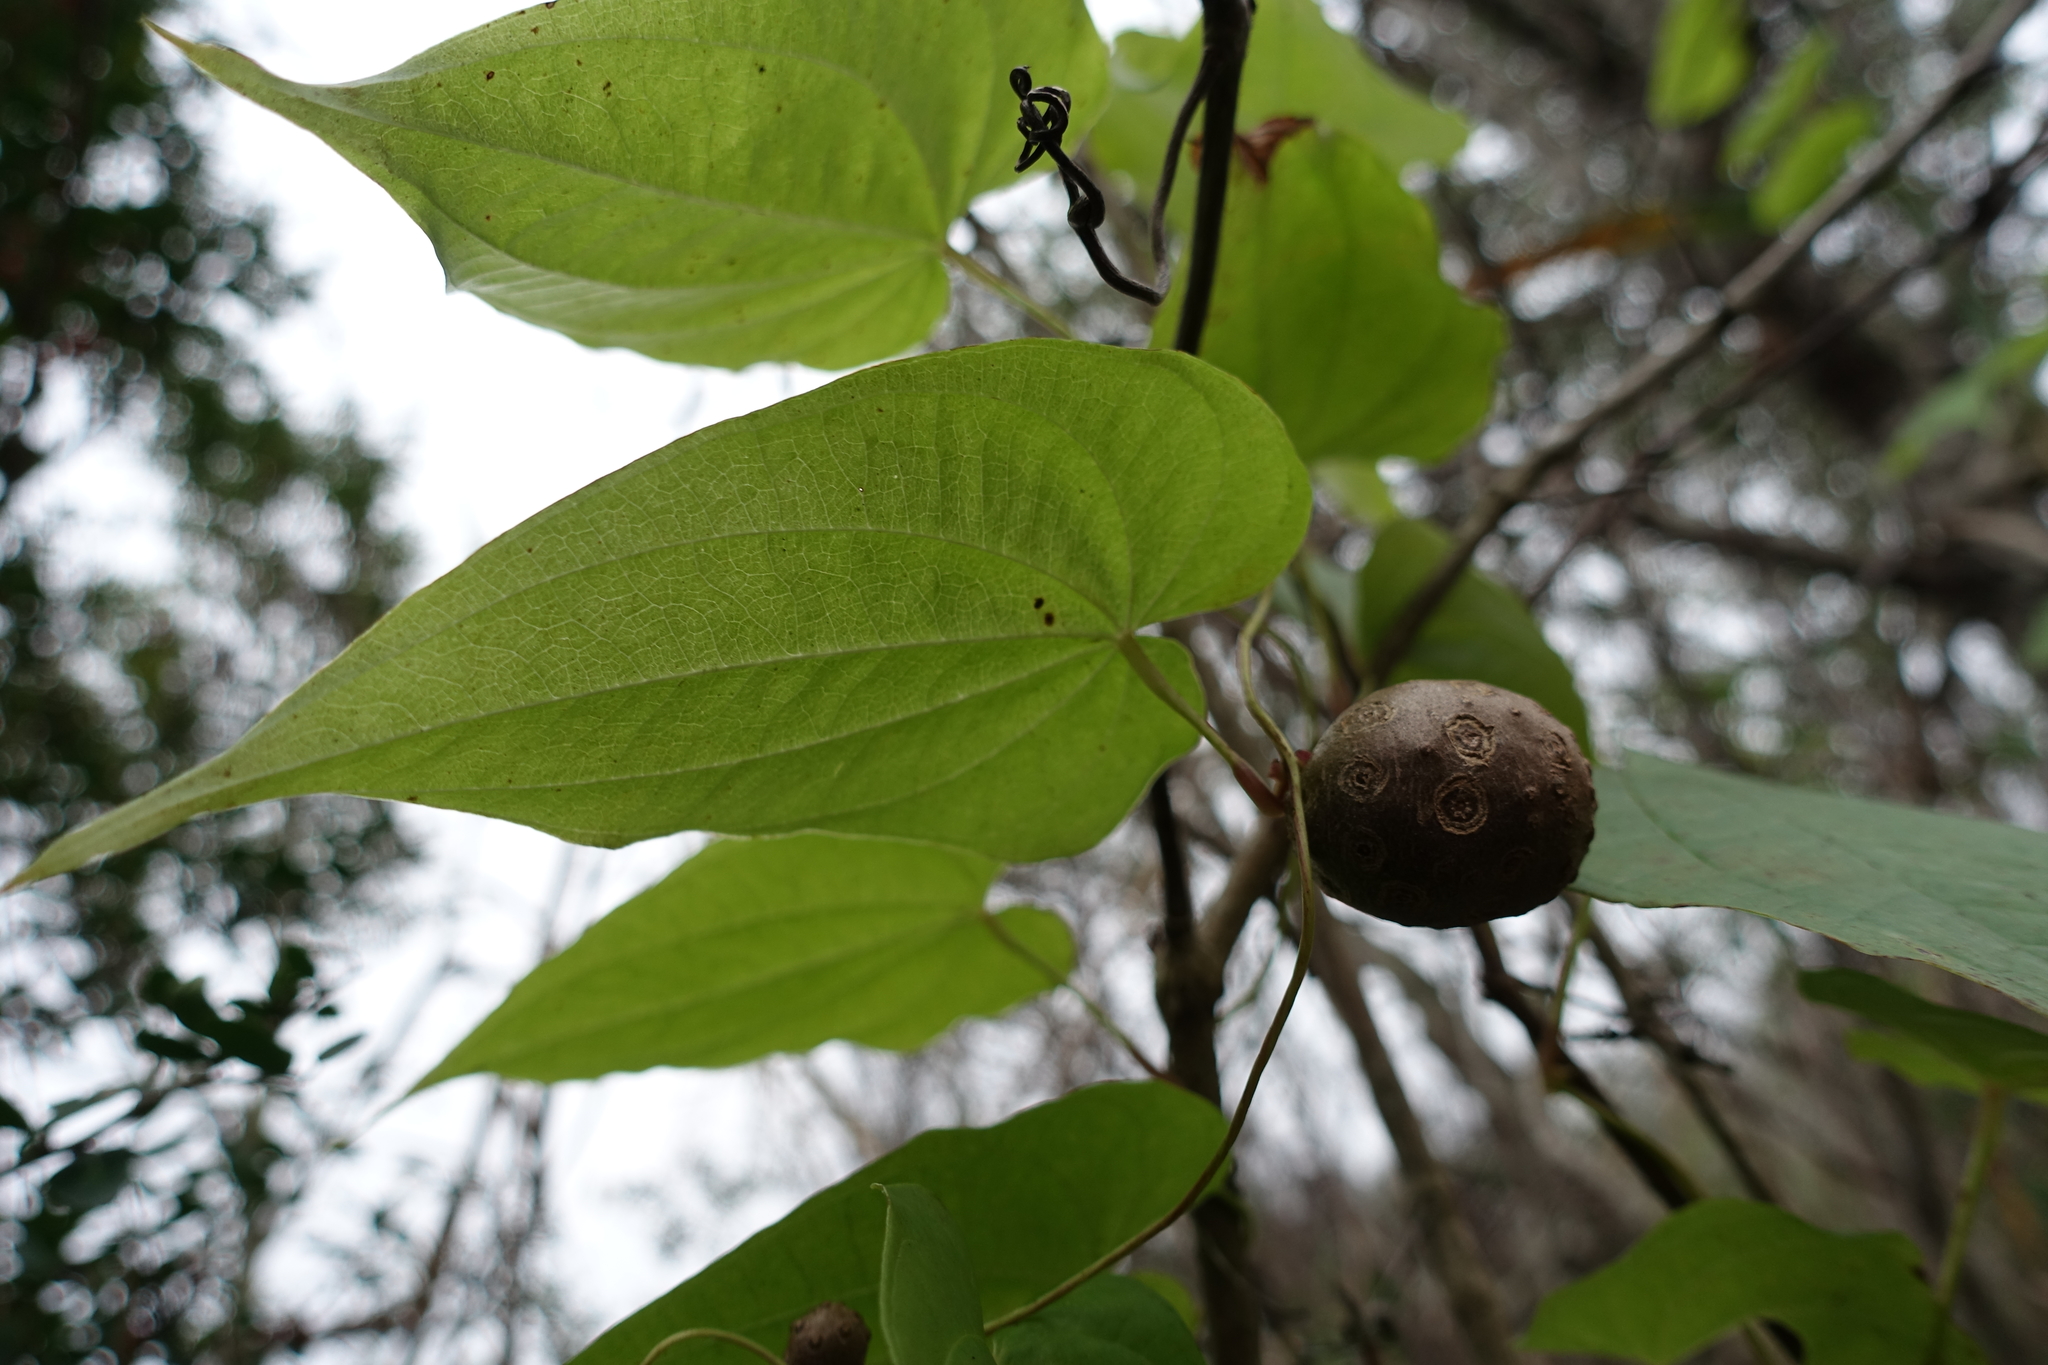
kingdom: Plantae
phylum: Tracheophyta
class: Liliopsida
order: Dioscoreales
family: Dioscoreaceae
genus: Dioscorea
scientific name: Dioscorea bulbifera
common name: Air yam
